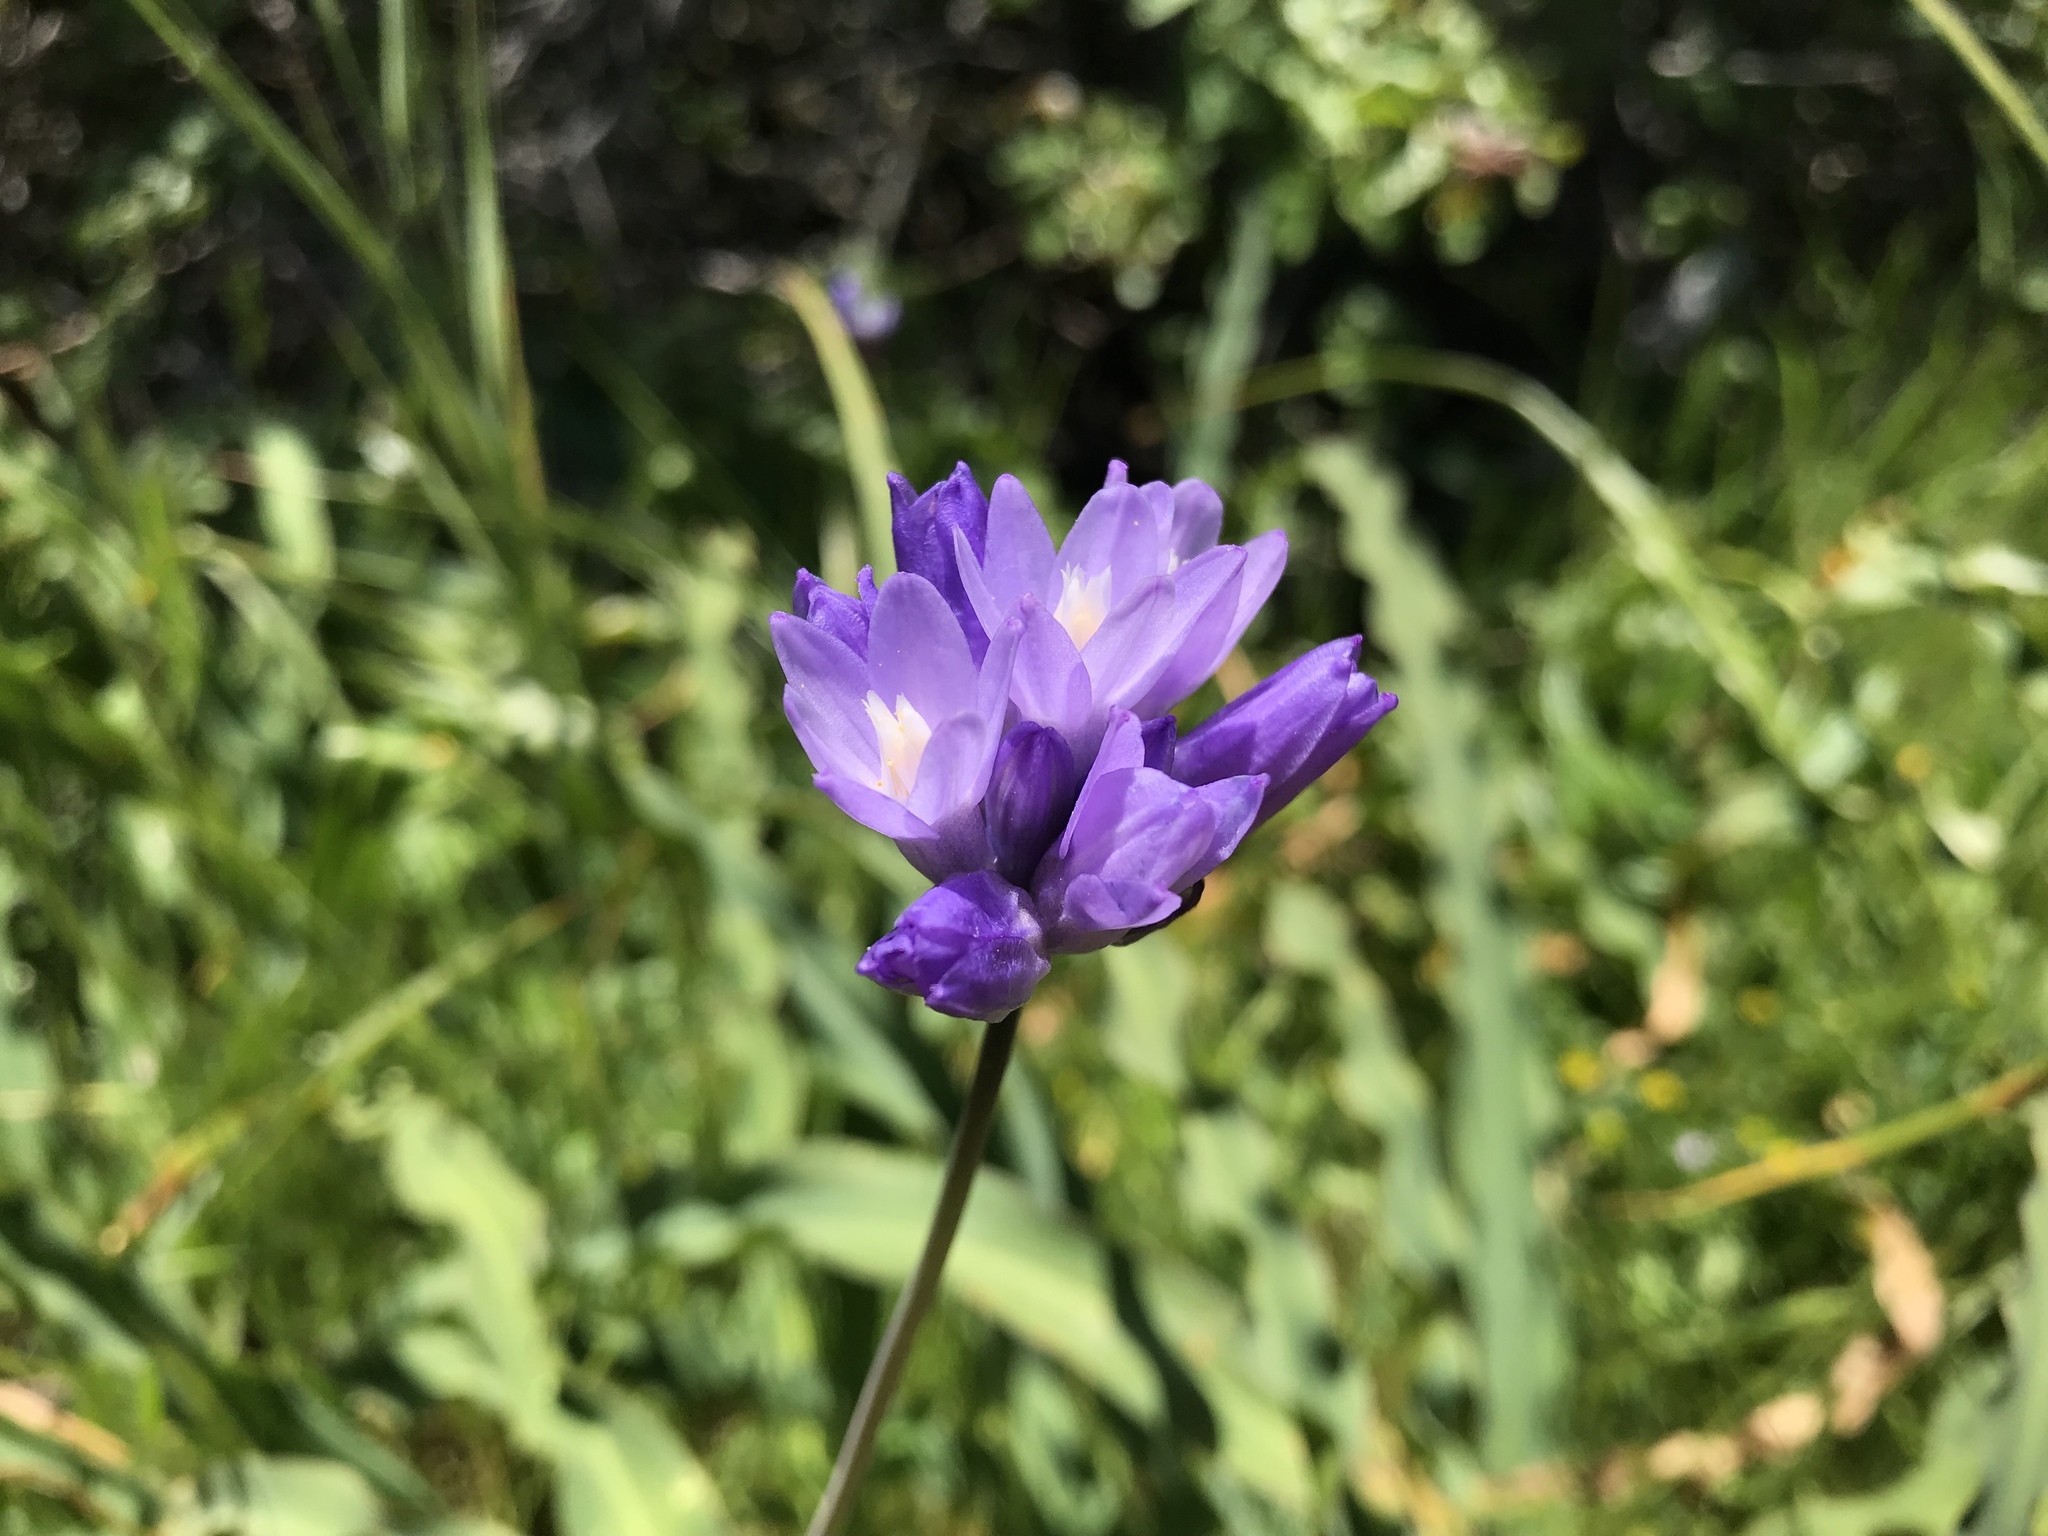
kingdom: Plantae
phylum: Tracheophyta
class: Liliopsida
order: Asparagales
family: Asparagaceae
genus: Dipterostemon
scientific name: Dipterostemon capitatus
